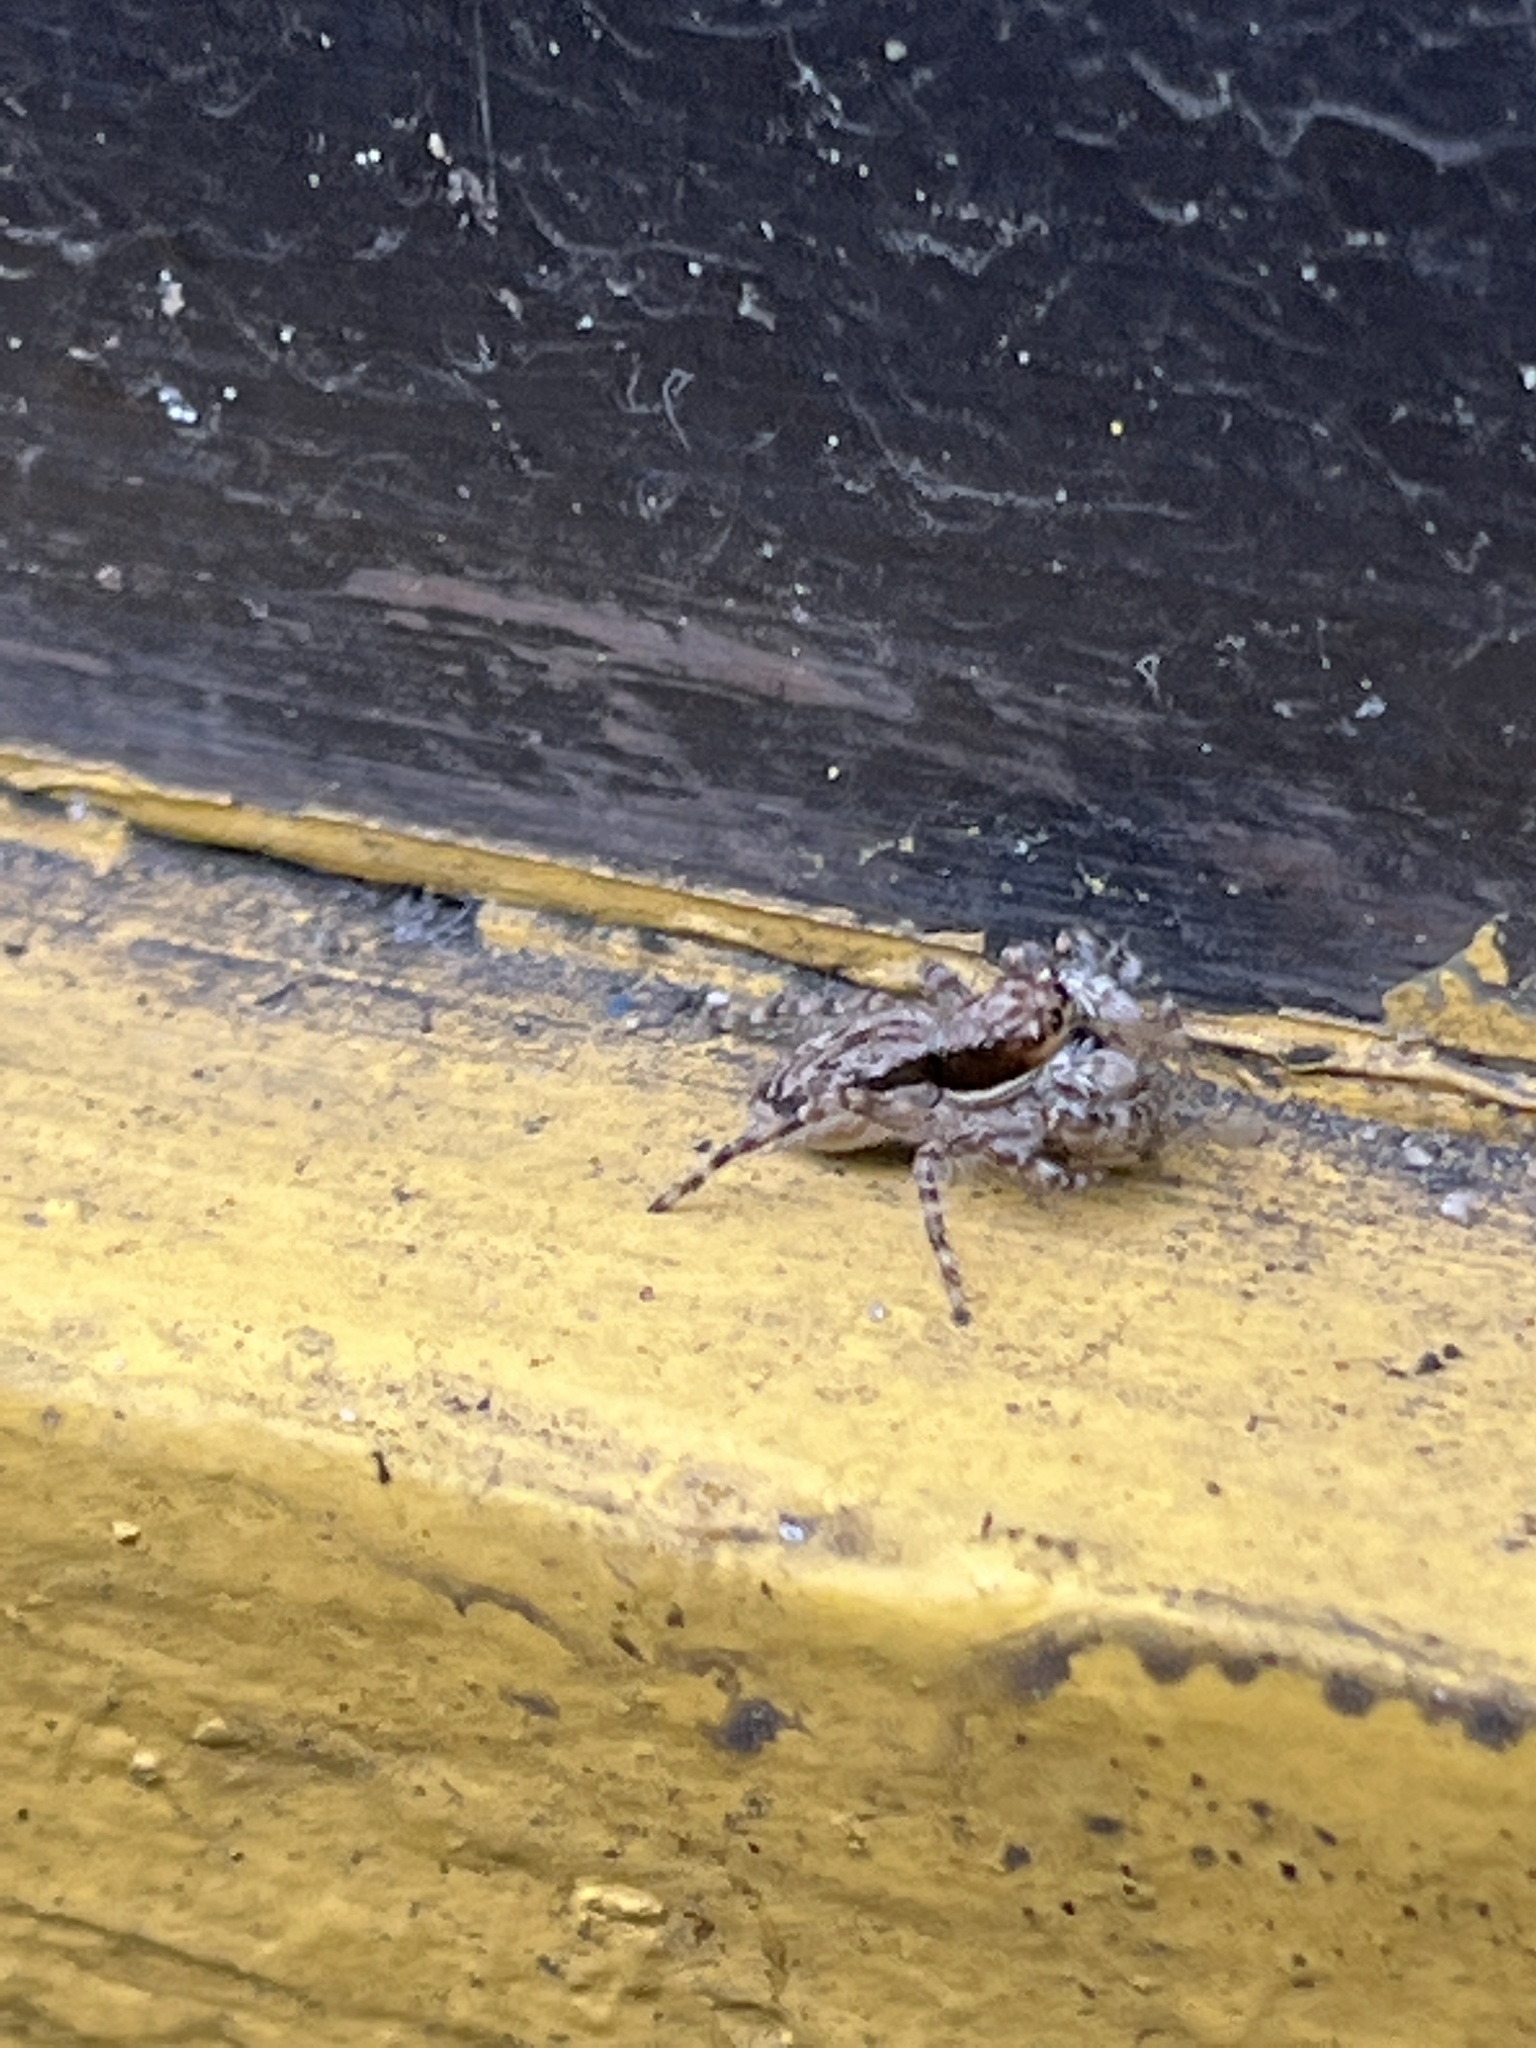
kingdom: Animalia
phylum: Arthropoda
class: Arachnida
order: Araneae
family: Salticidae
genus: Menemerus
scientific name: Menemerus bivittatus
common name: Gray wall jumper
